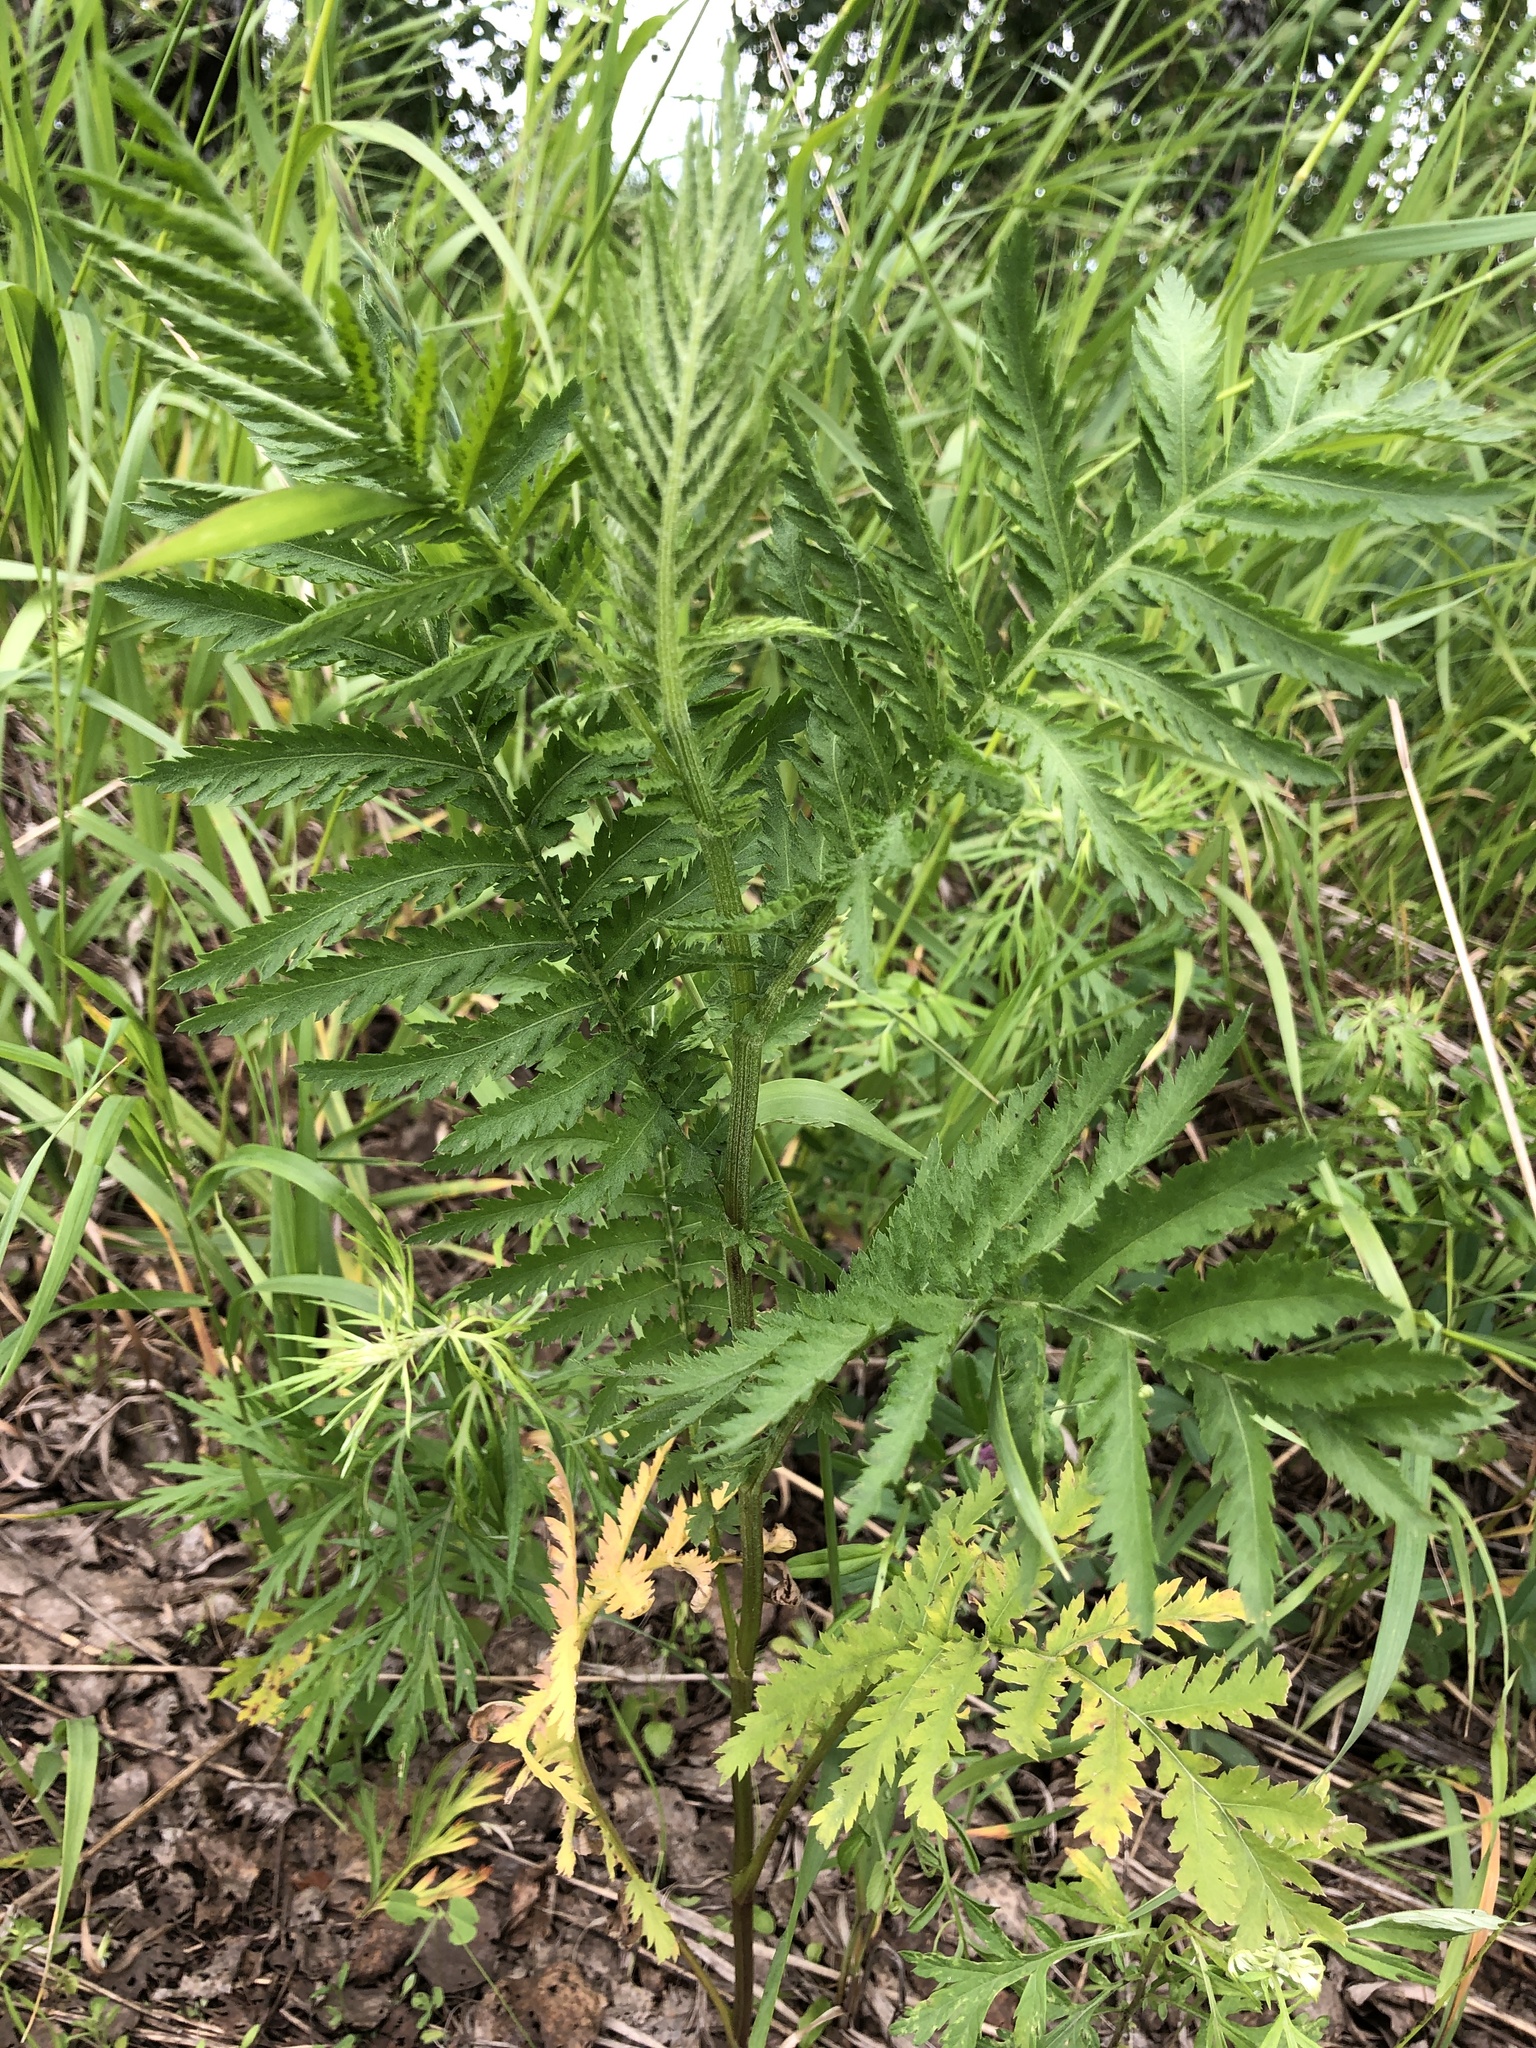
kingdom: Plantae
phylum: Tracheophyta
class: Magnoliopsida
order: Asterales
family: Asteraceae
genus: Tanacetum
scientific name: Tanacetum vulgare
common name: Common tansy
